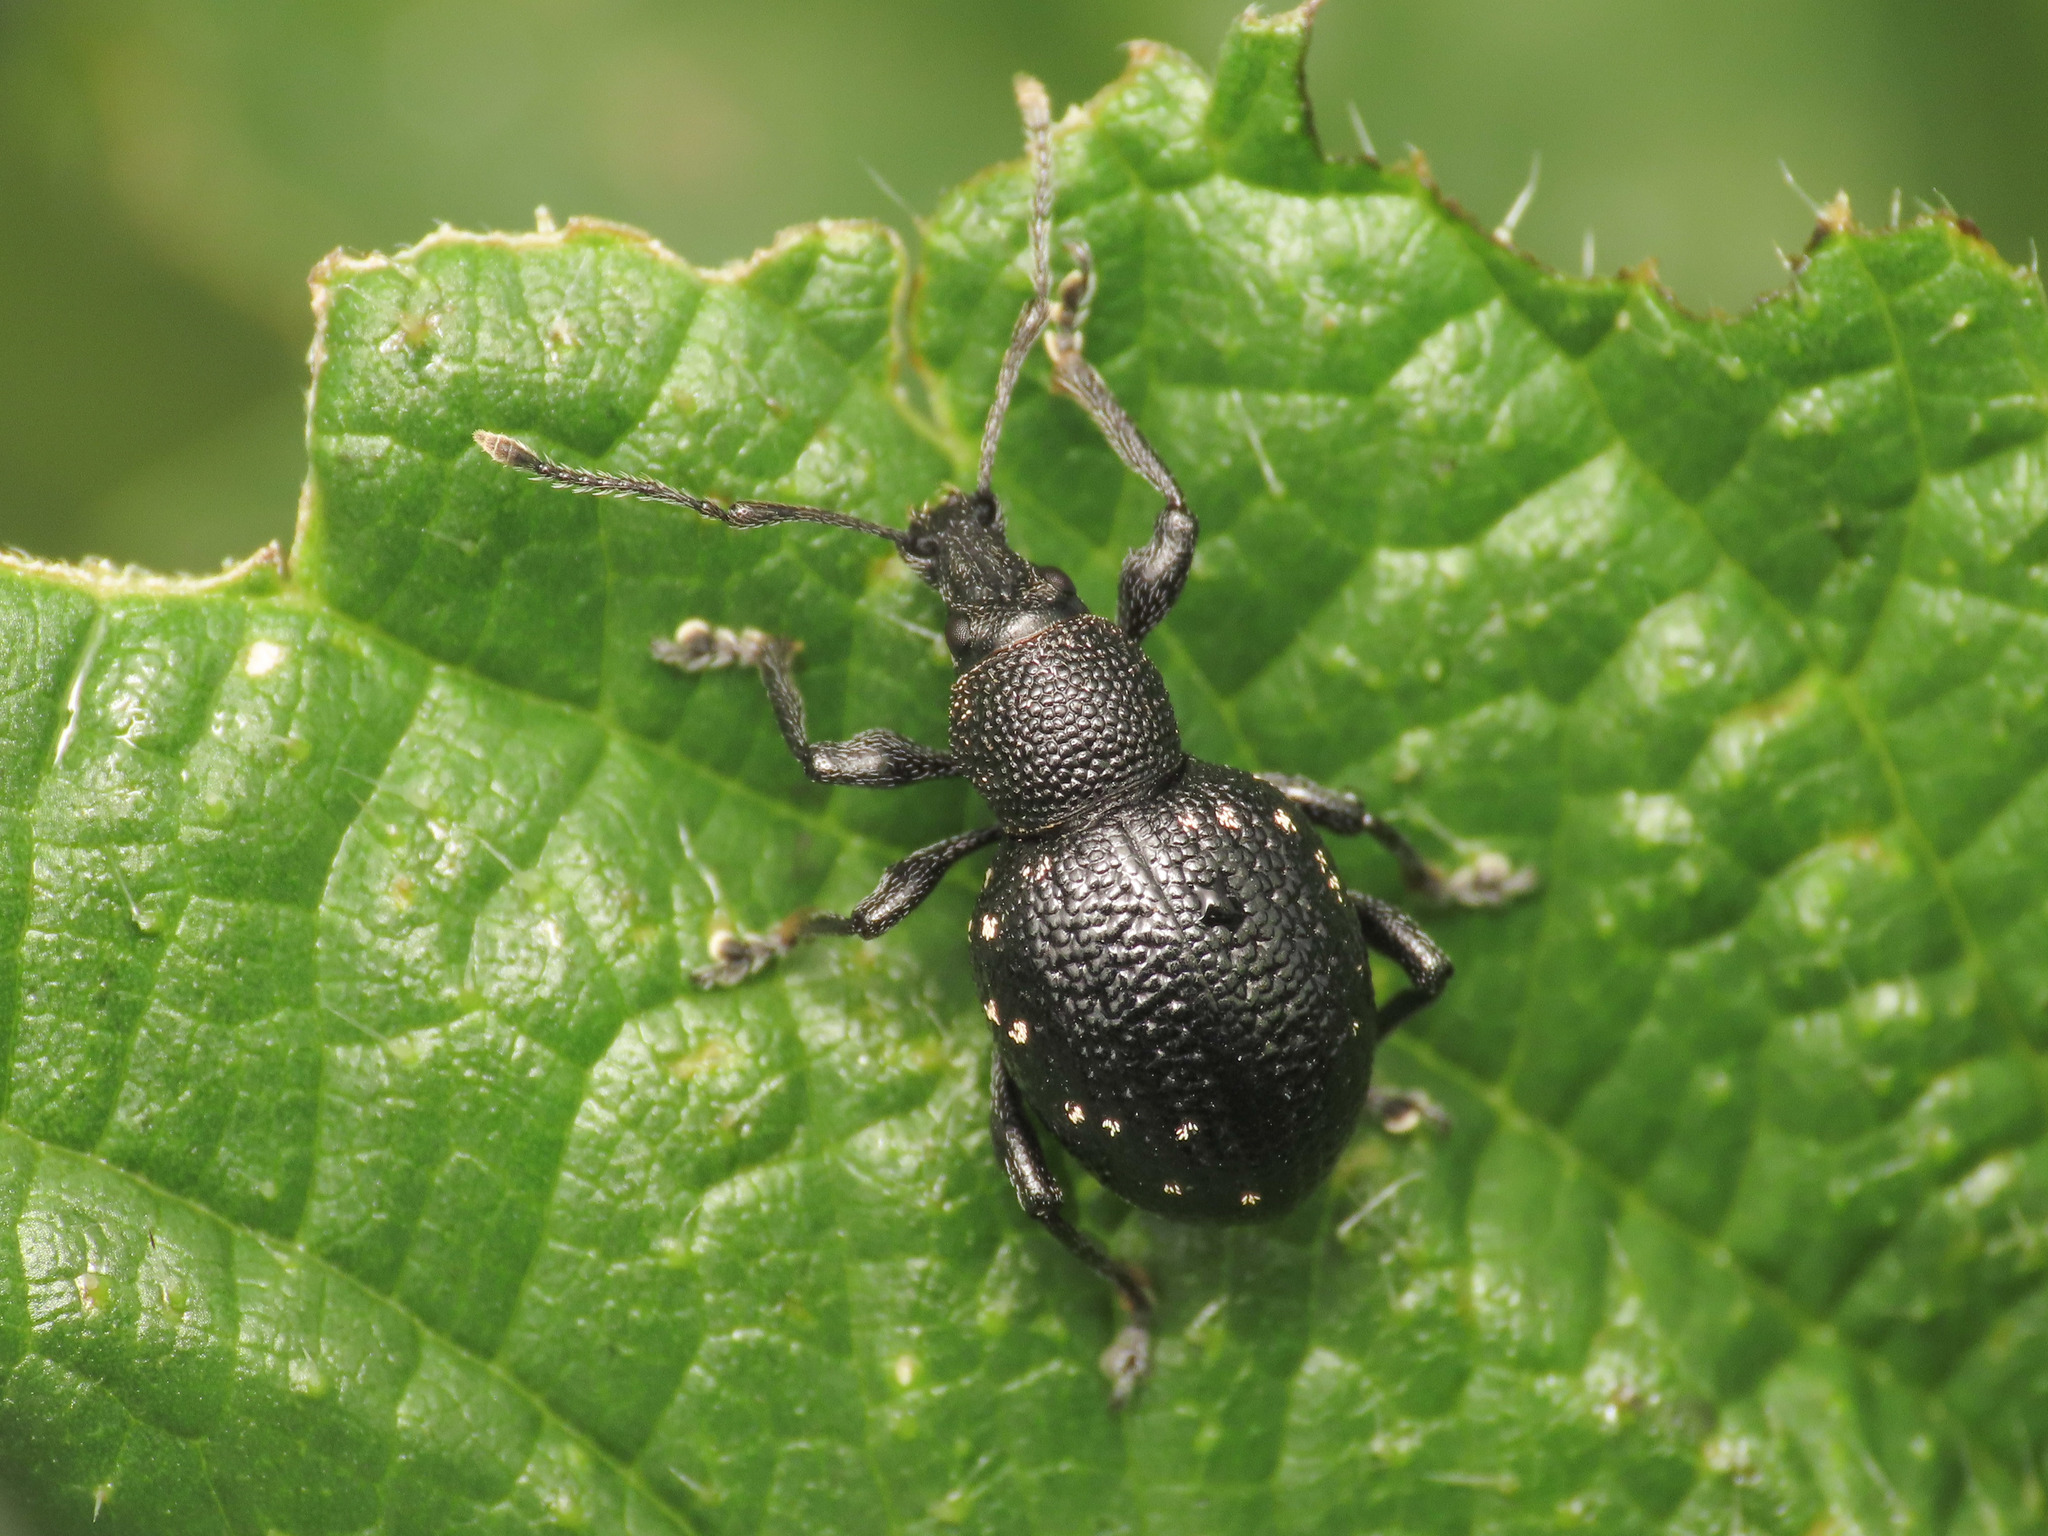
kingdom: Animalia
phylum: Arthropoda
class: Insecta
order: Coleoptera
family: Curculionidae
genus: Otiorhynchus
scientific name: Otiorhynchus gemmatus
